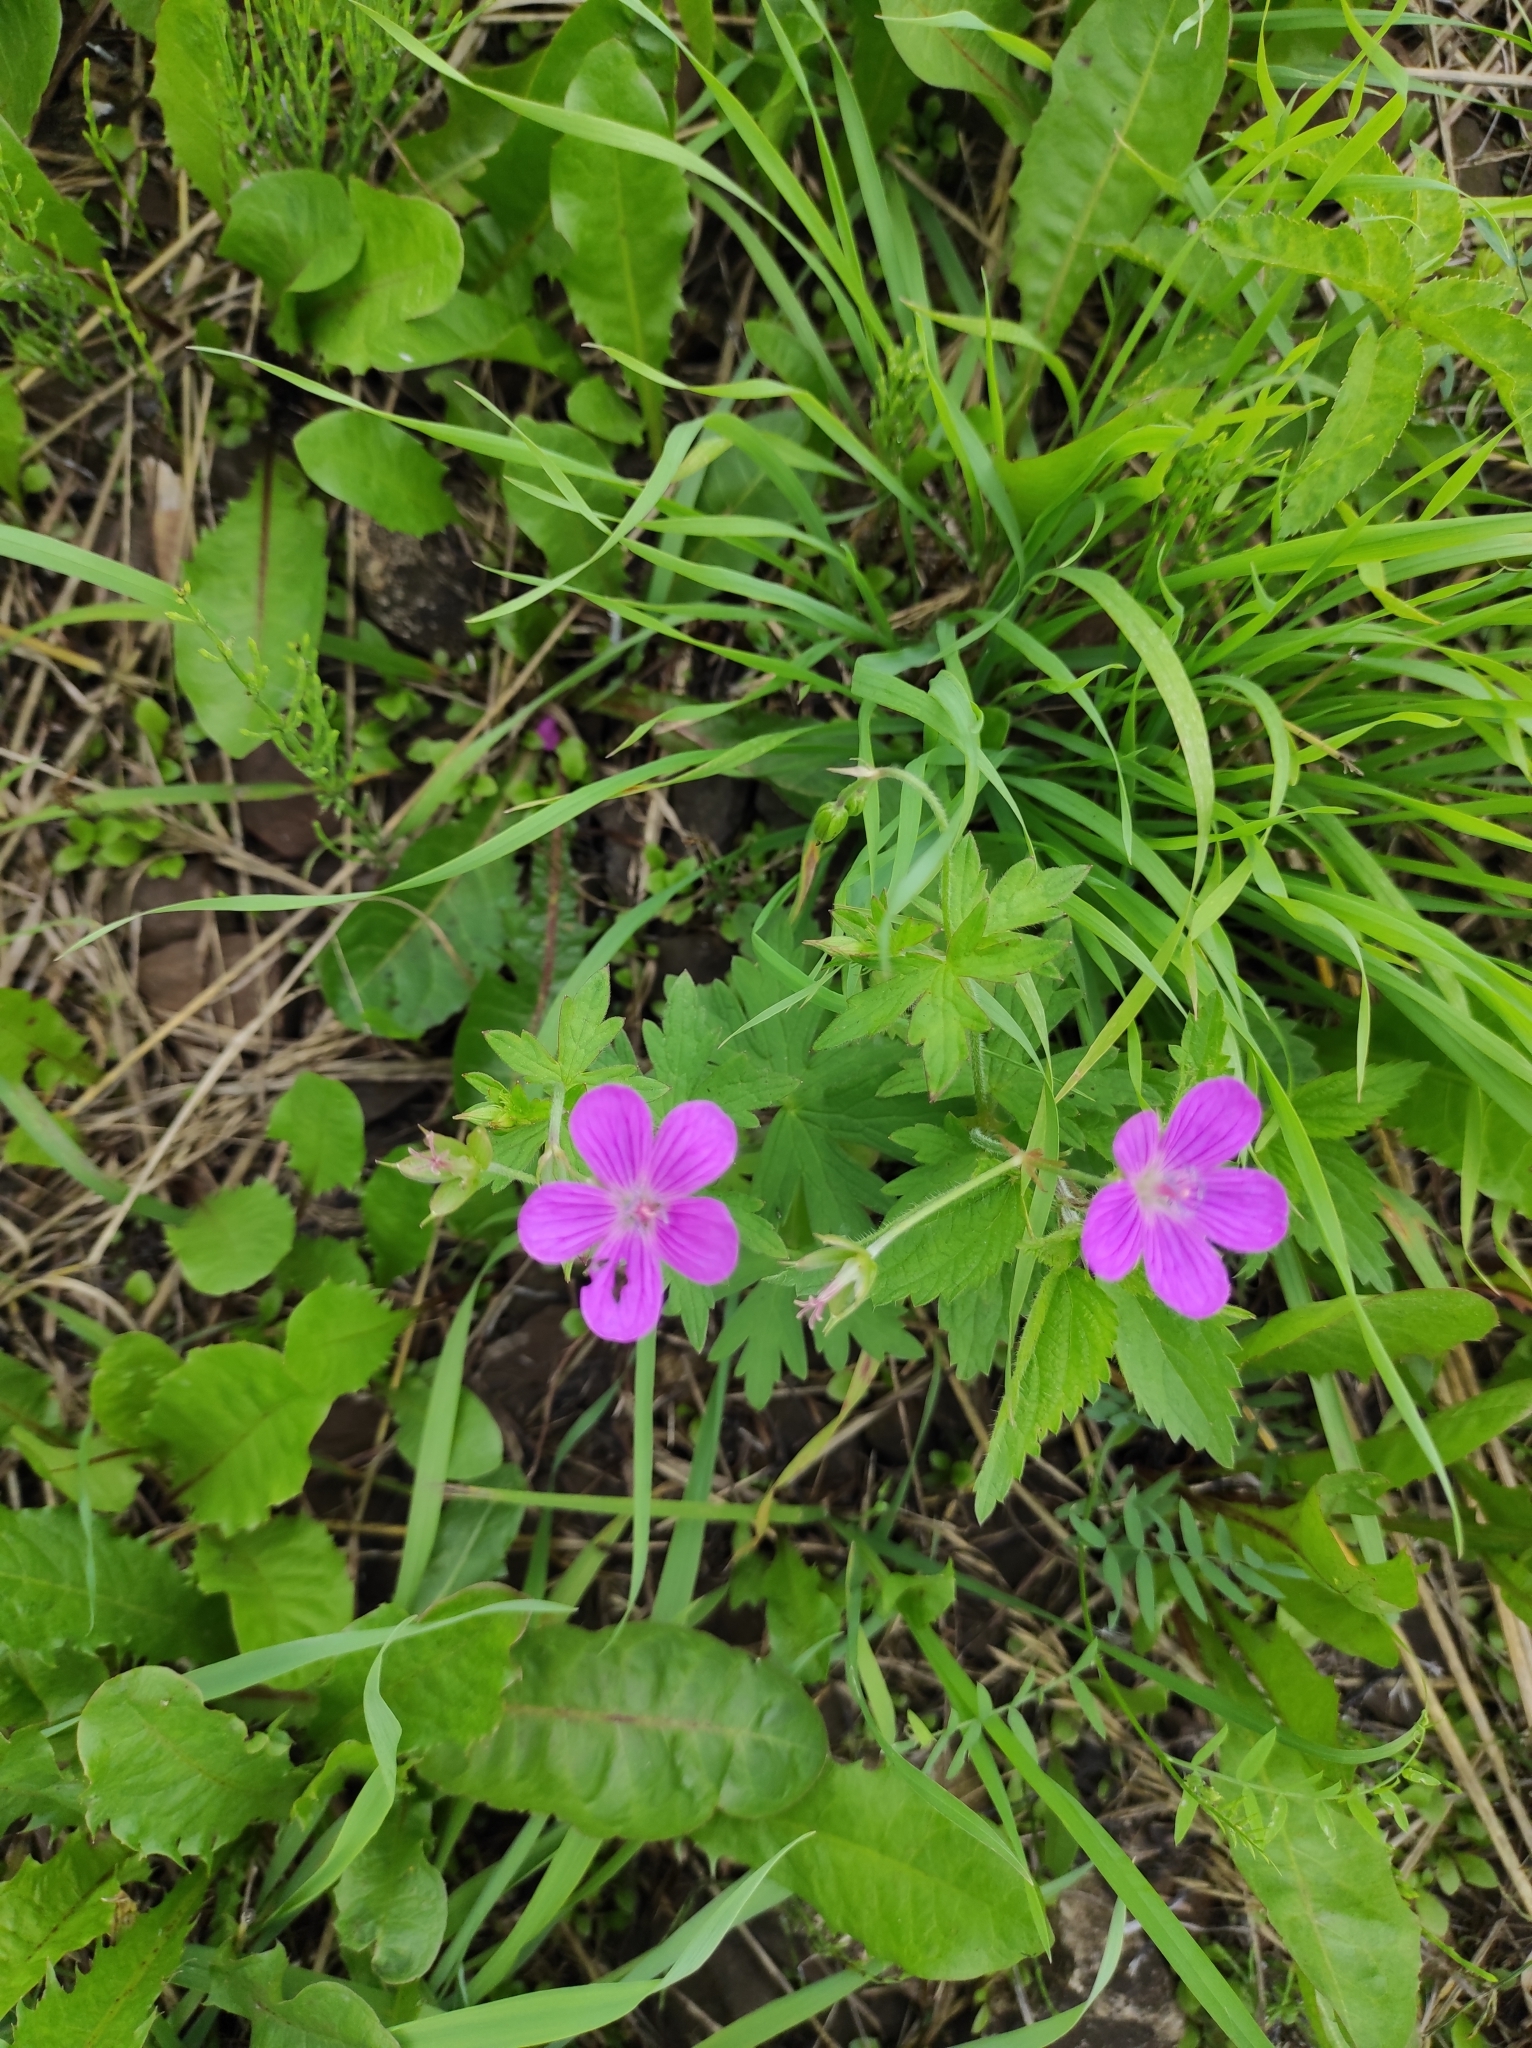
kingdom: Plantae
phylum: Tracheophyta
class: Magnoliopsida
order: Geraniales
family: Geraniaceae
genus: Geranium
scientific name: Geranium palustre
